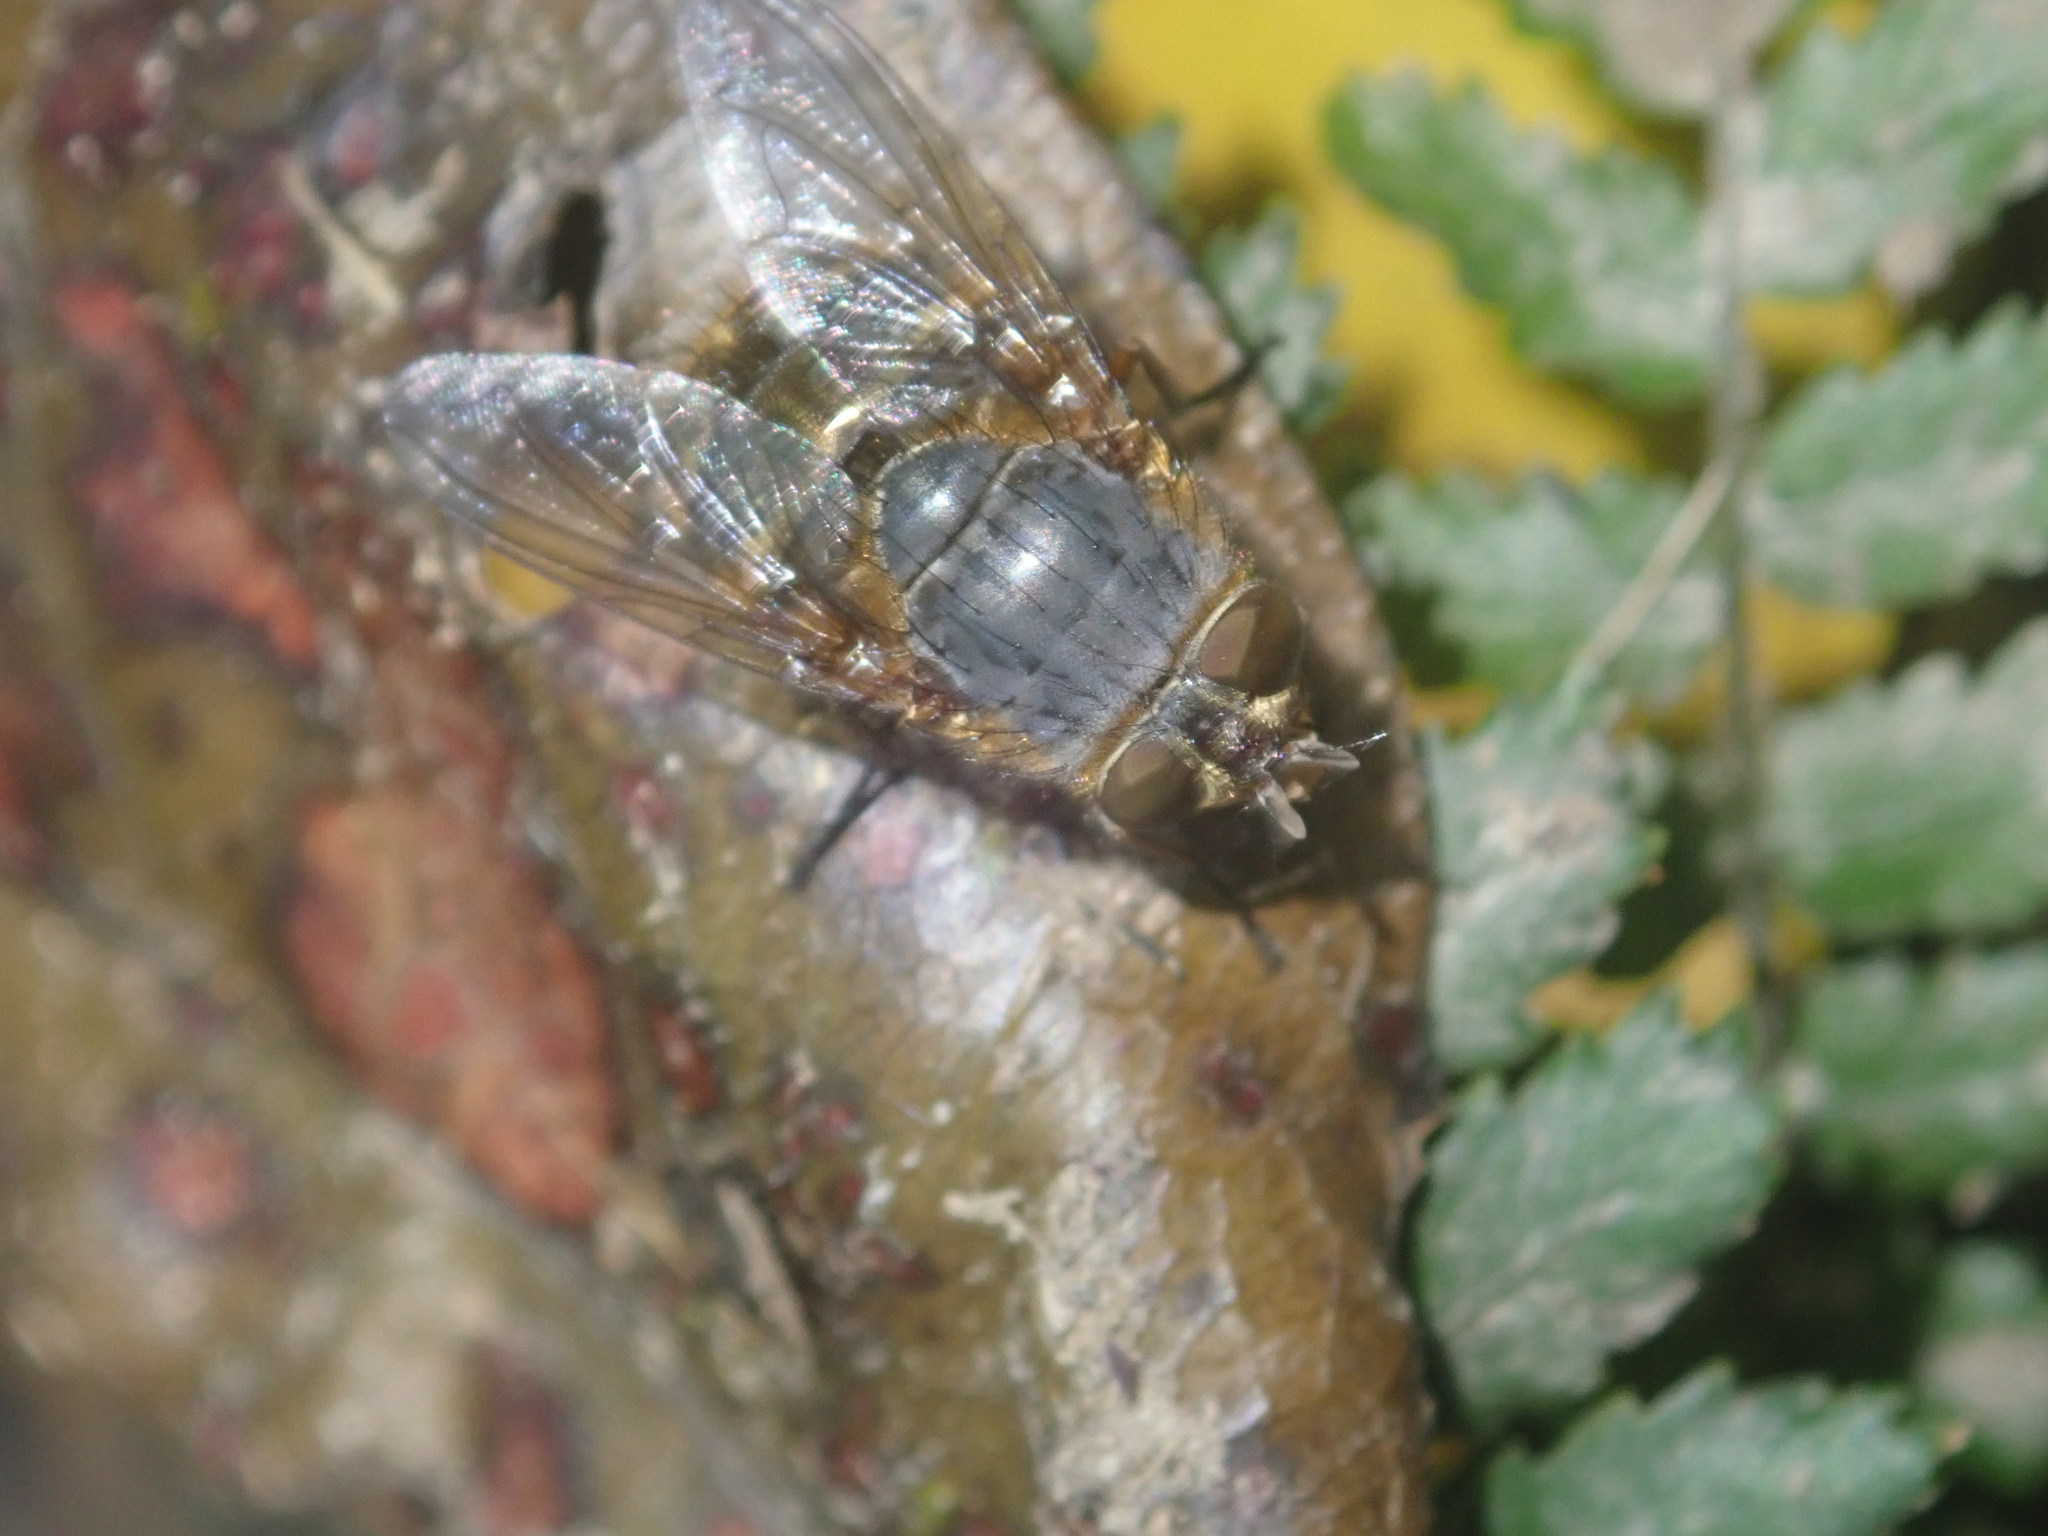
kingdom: Animalia
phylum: Arthropoda
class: Insecta
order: Diptera
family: Calliphoridae
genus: Calliphora
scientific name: Calliphora hilli
